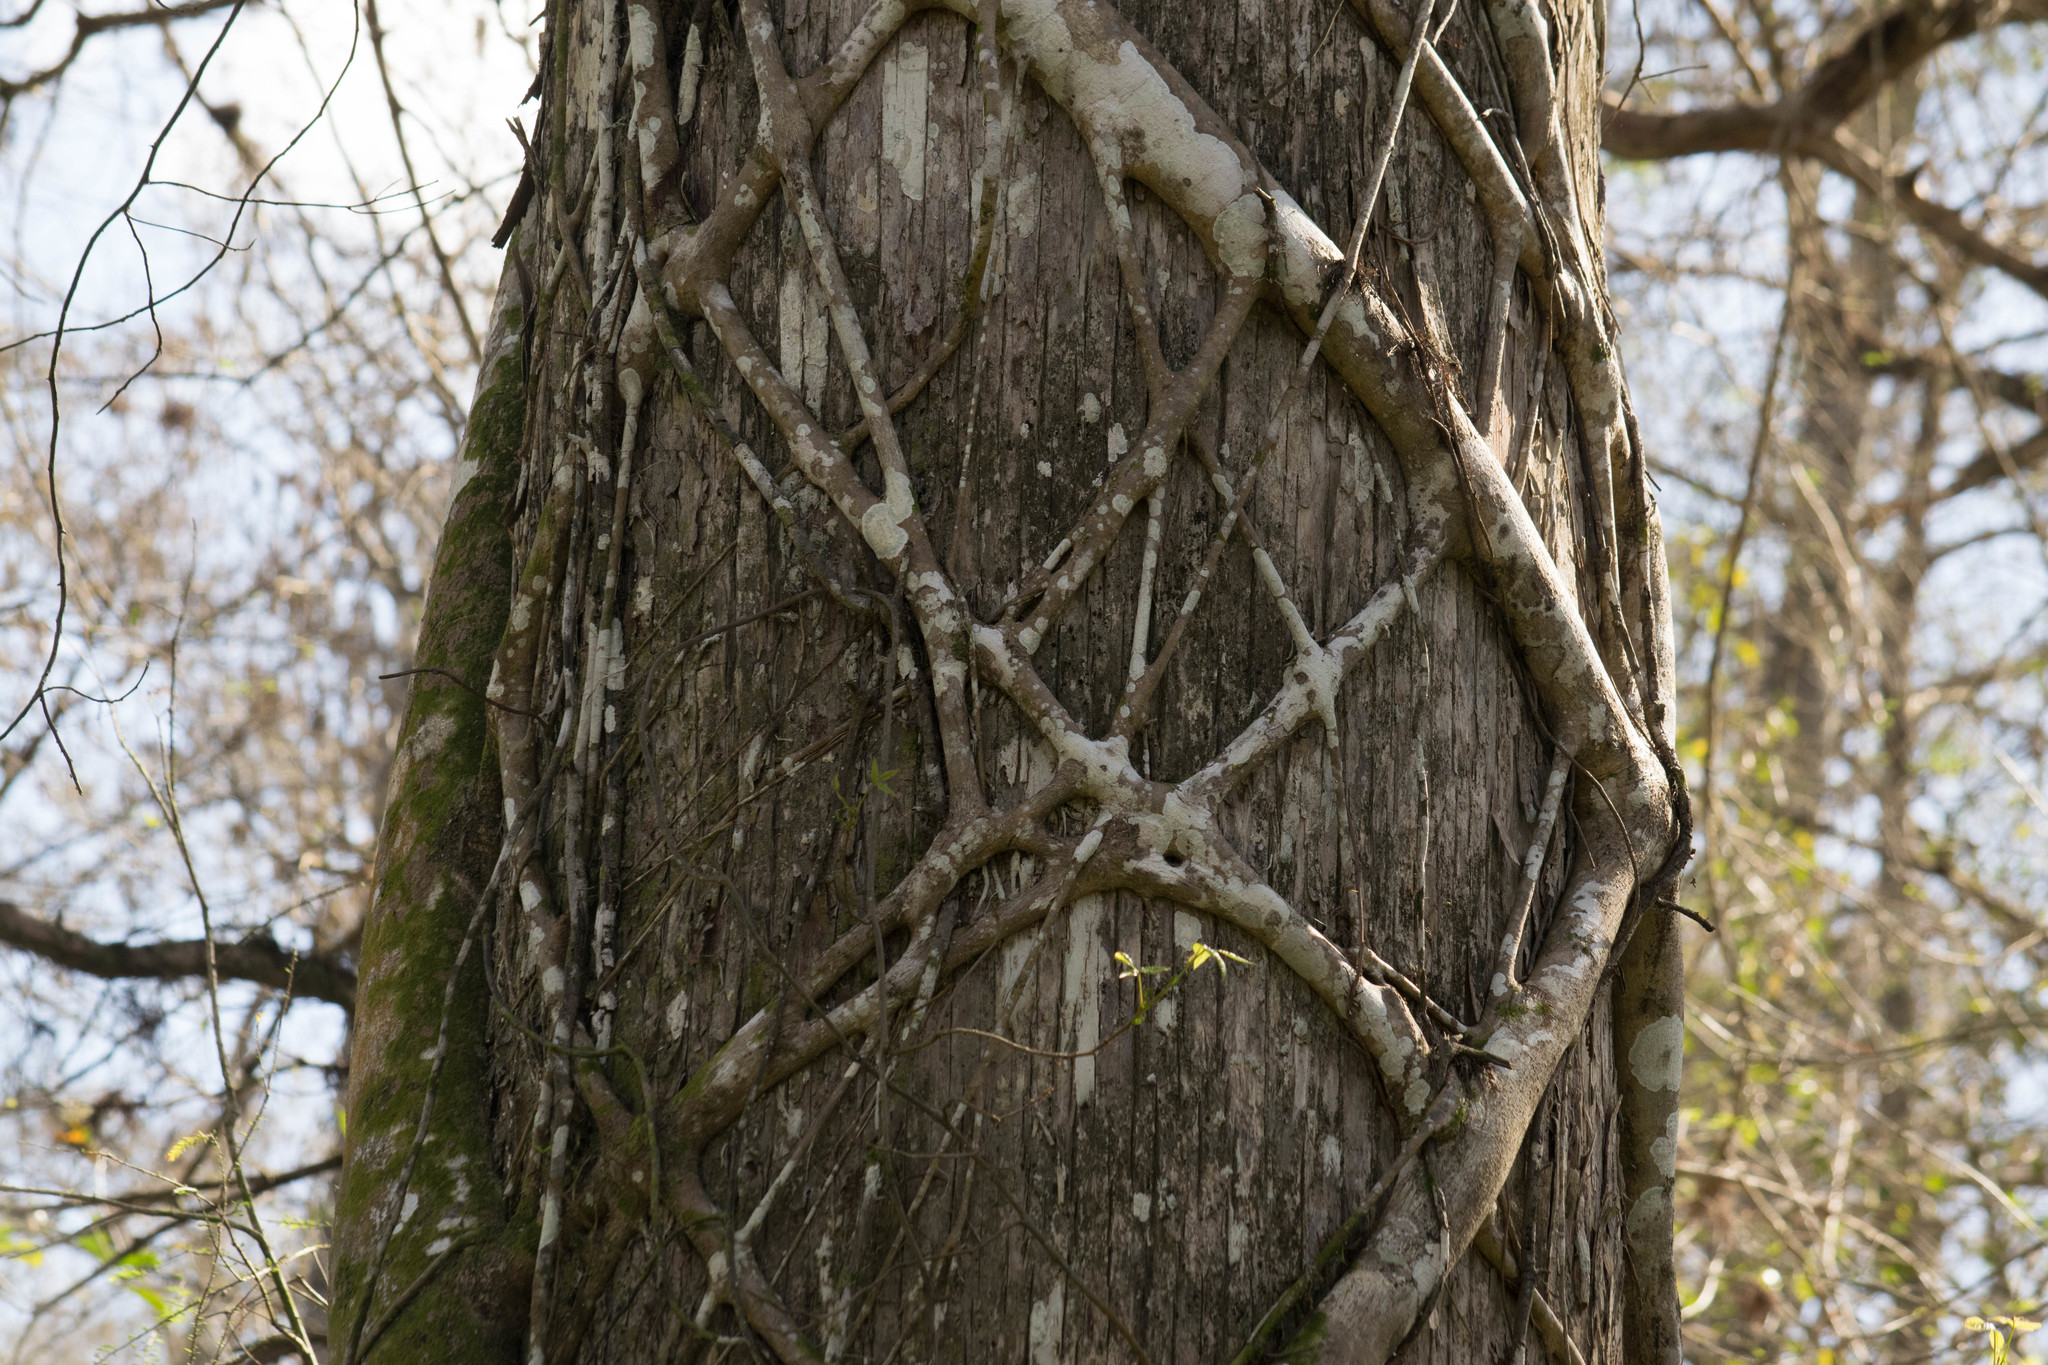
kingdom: Plantae
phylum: Tracheophyta
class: Pinopsida
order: Pinales
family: Cupressaceae
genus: Taxodium
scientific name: Taxodium distichum
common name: Bald cypress
